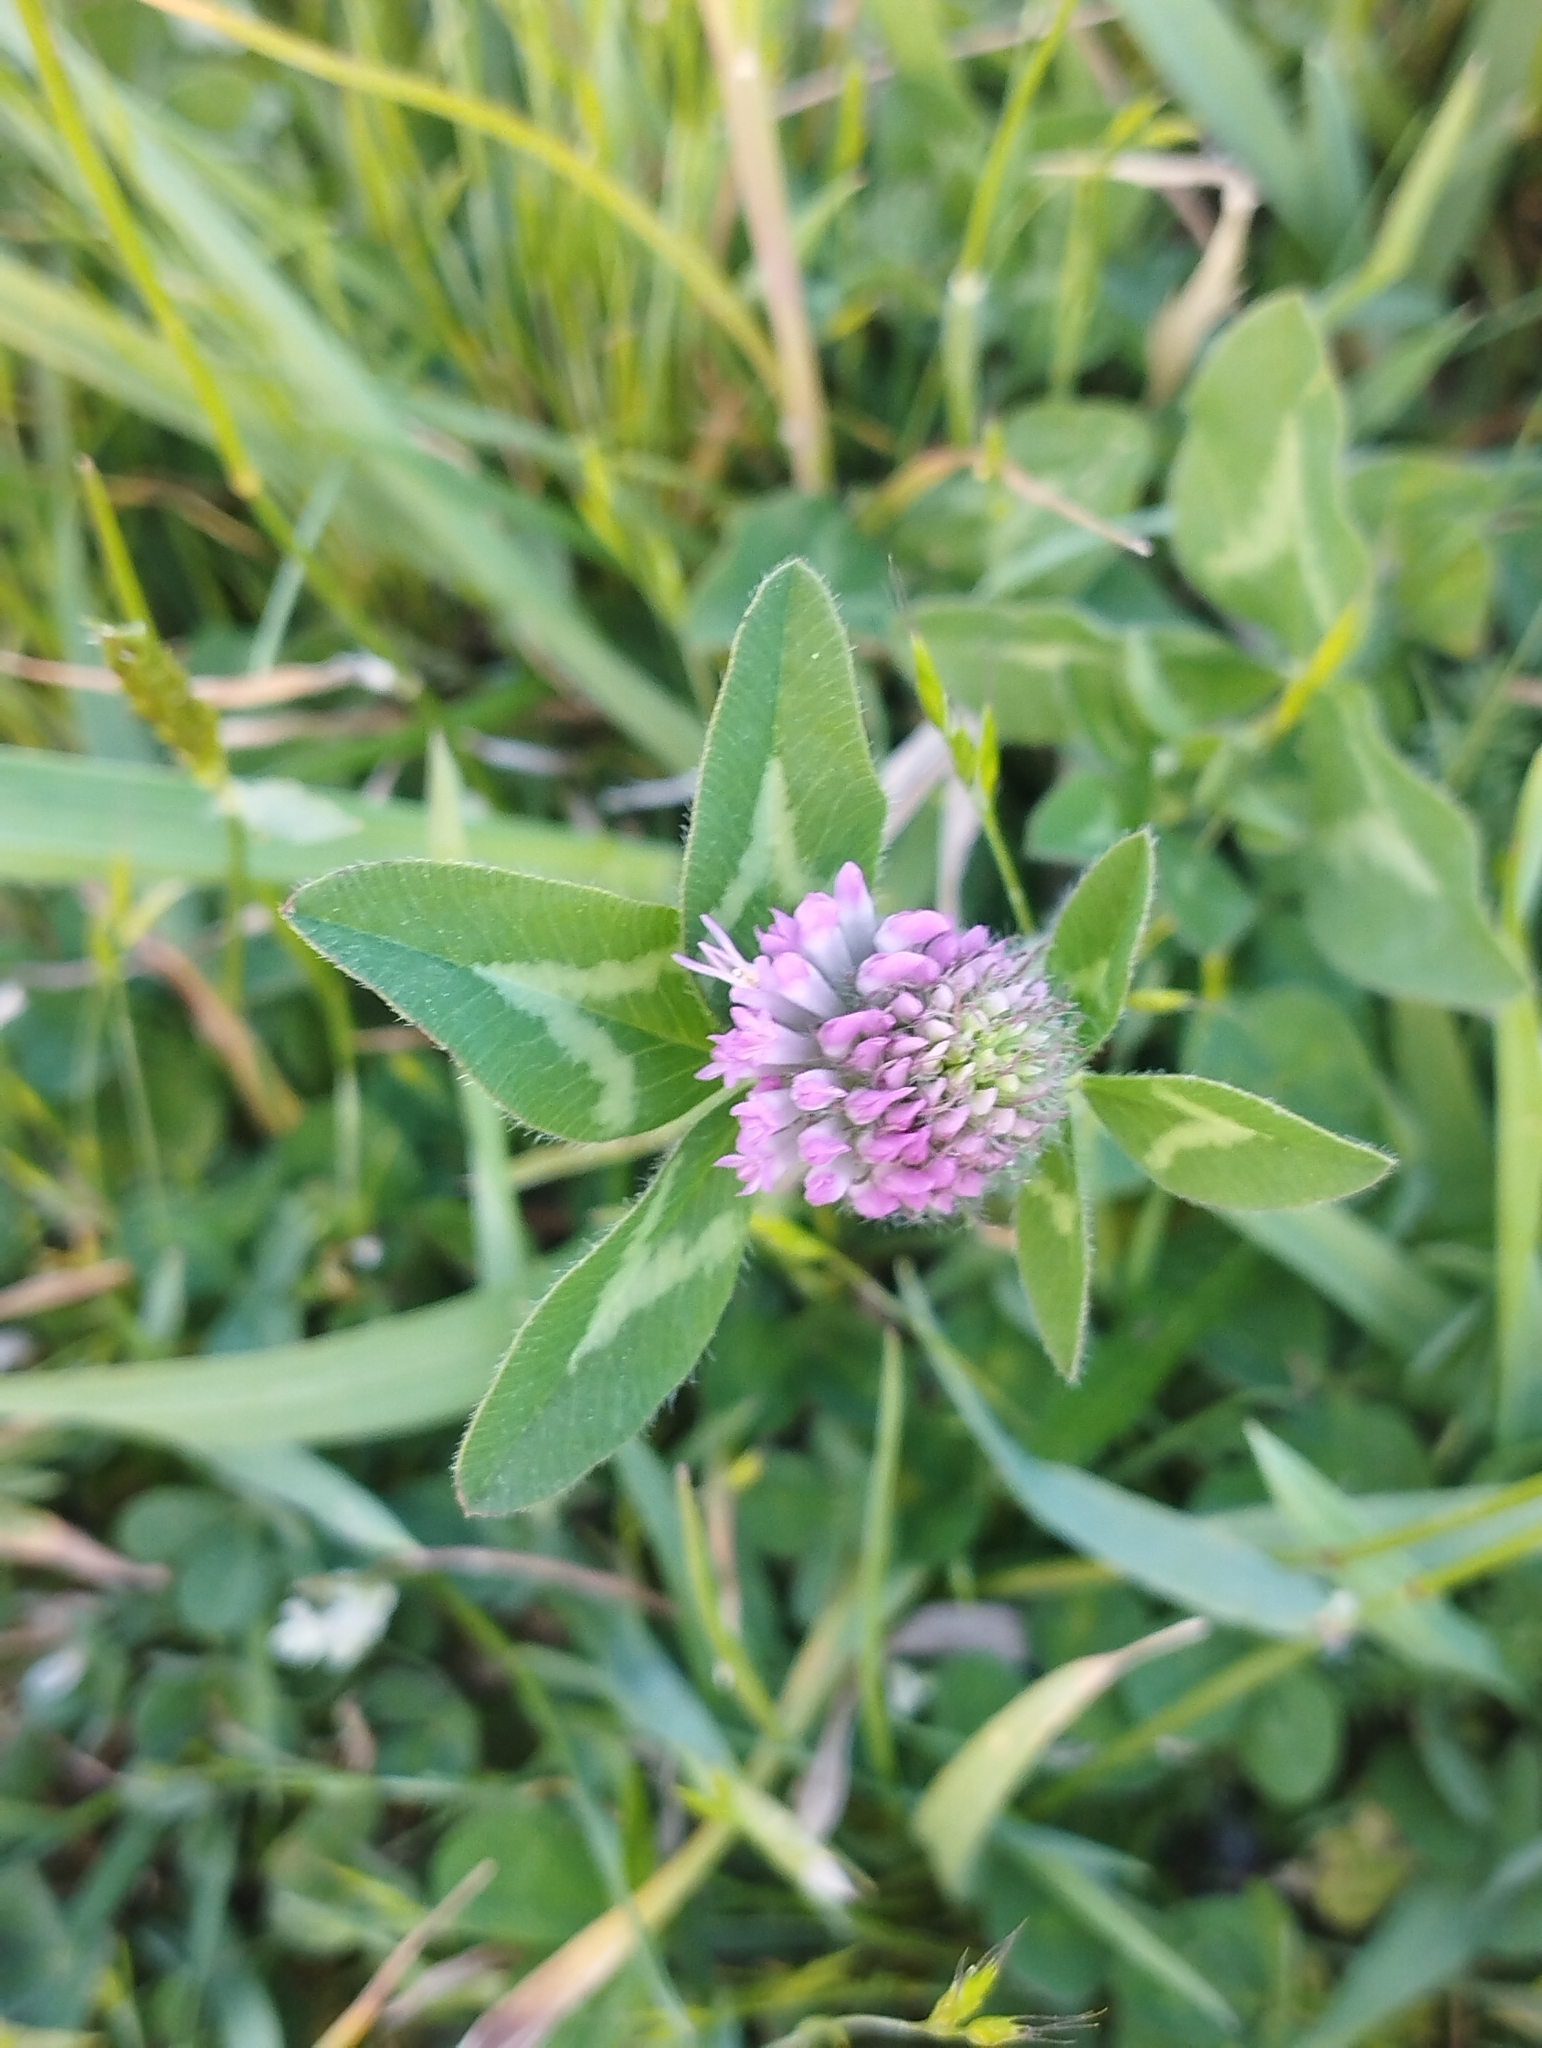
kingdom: Plantae
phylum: Tracheophyta
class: Magnoliopsida
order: Fabales
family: Fabaceae
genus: Trifolium
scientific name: Trifolium pratense
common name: Red clover
